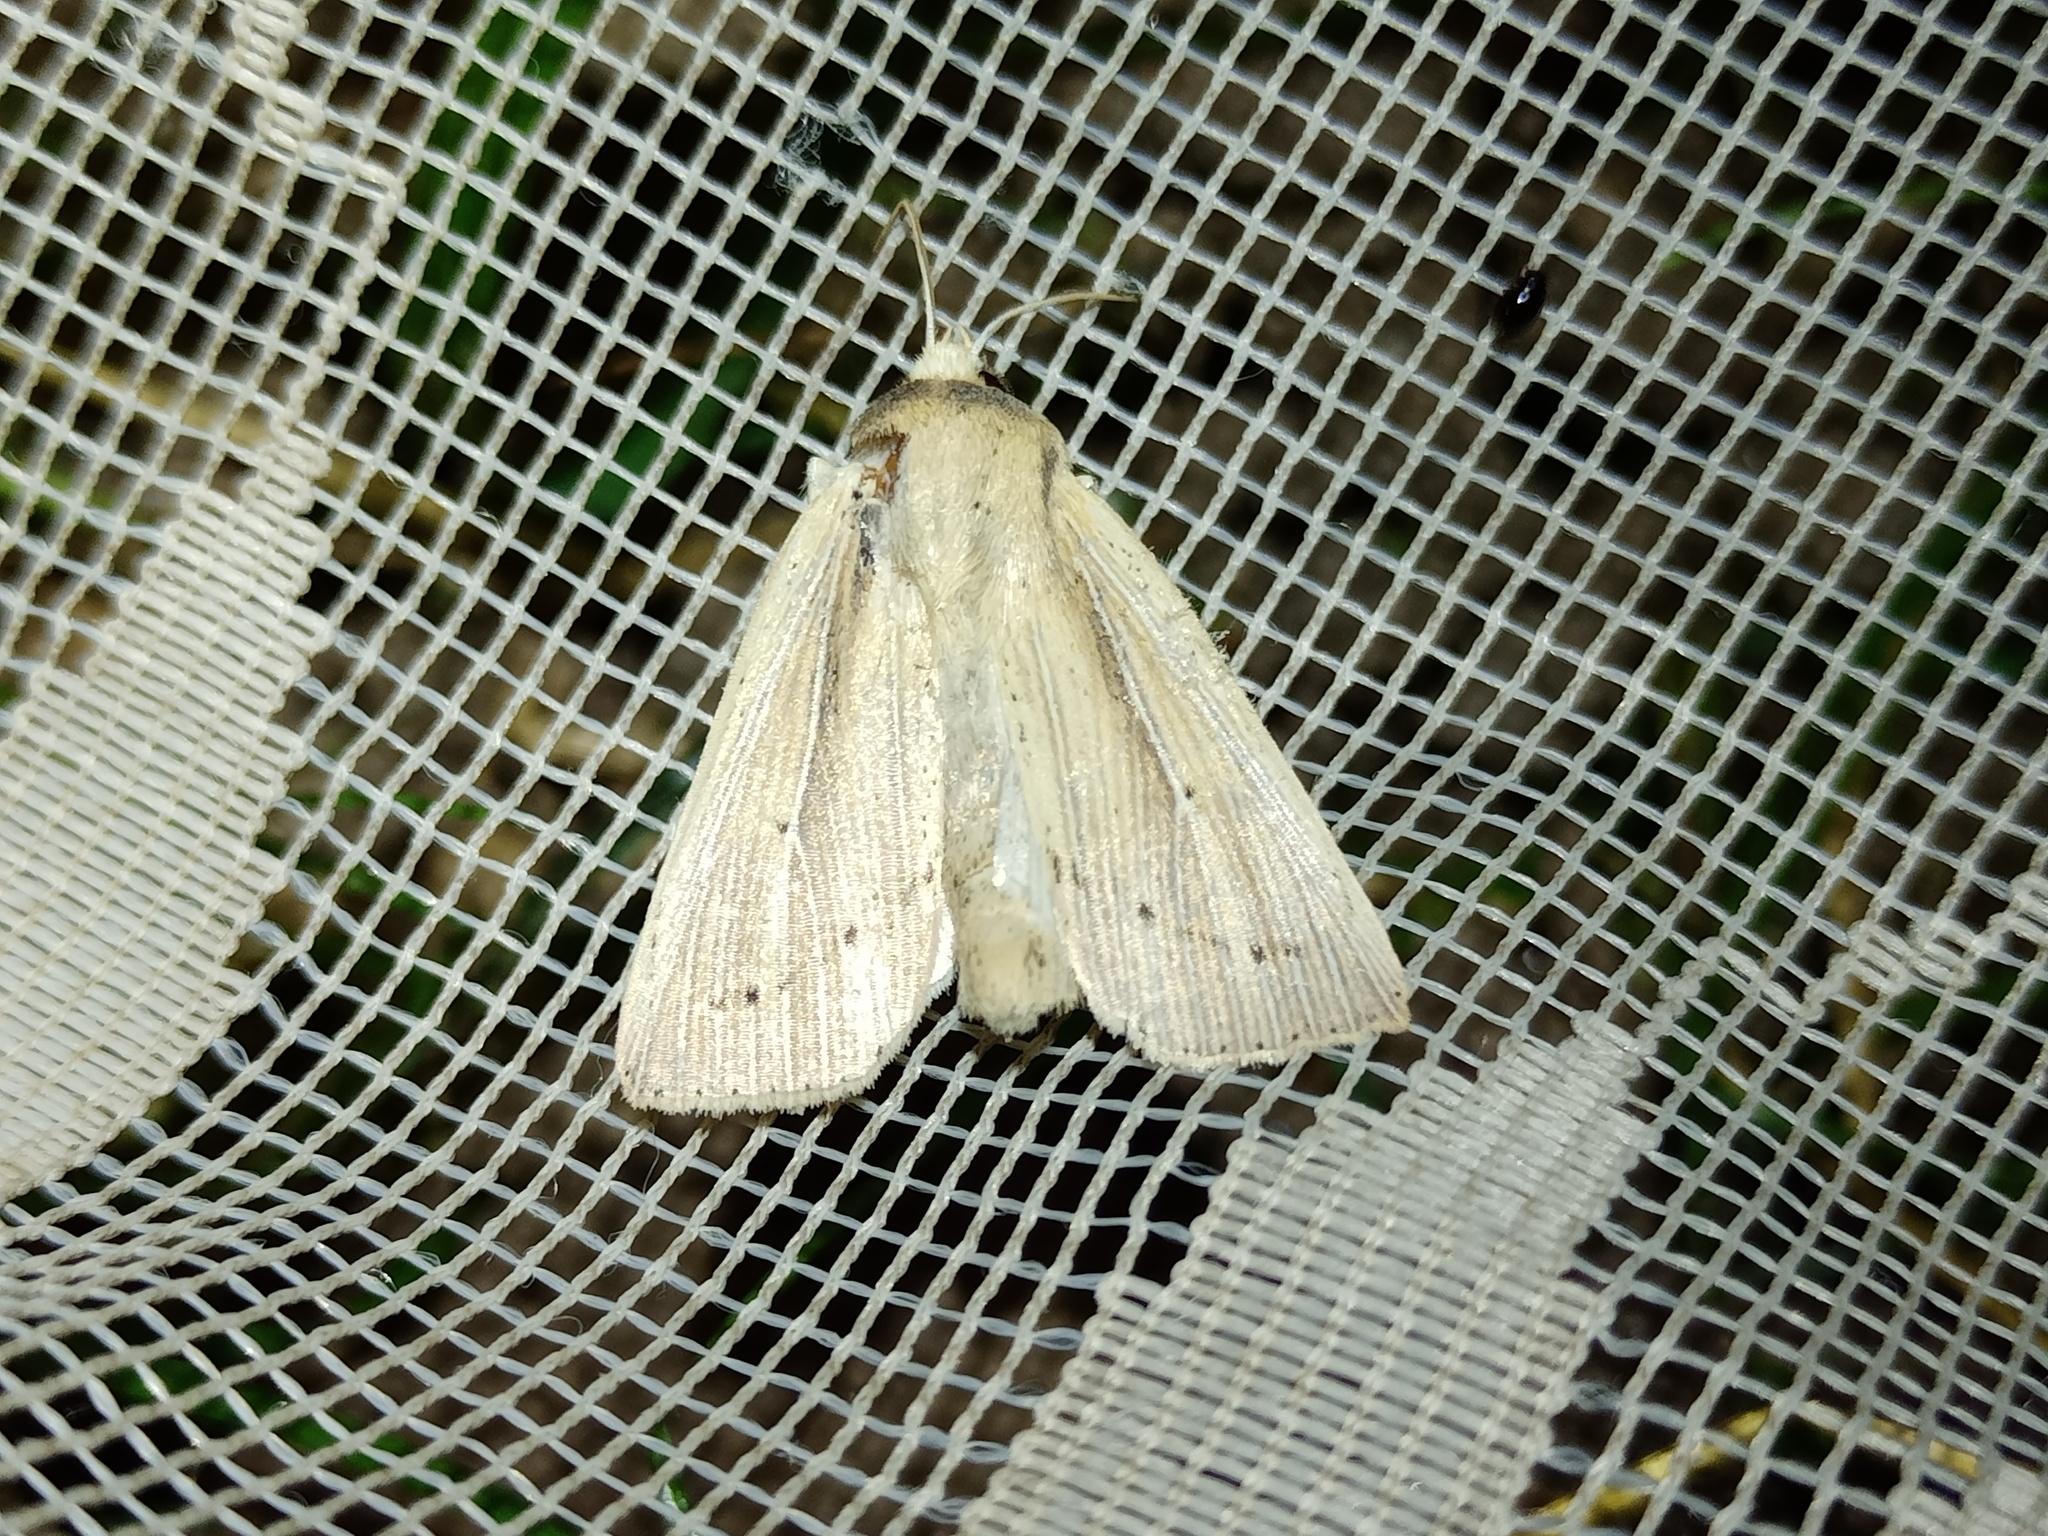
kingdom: Animalia
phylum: Arthropoda
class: Insecta
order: Lepidoptera
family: Noctuidae
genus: Mythimna
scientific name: Mythimna straminea
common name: Southern wainscot
